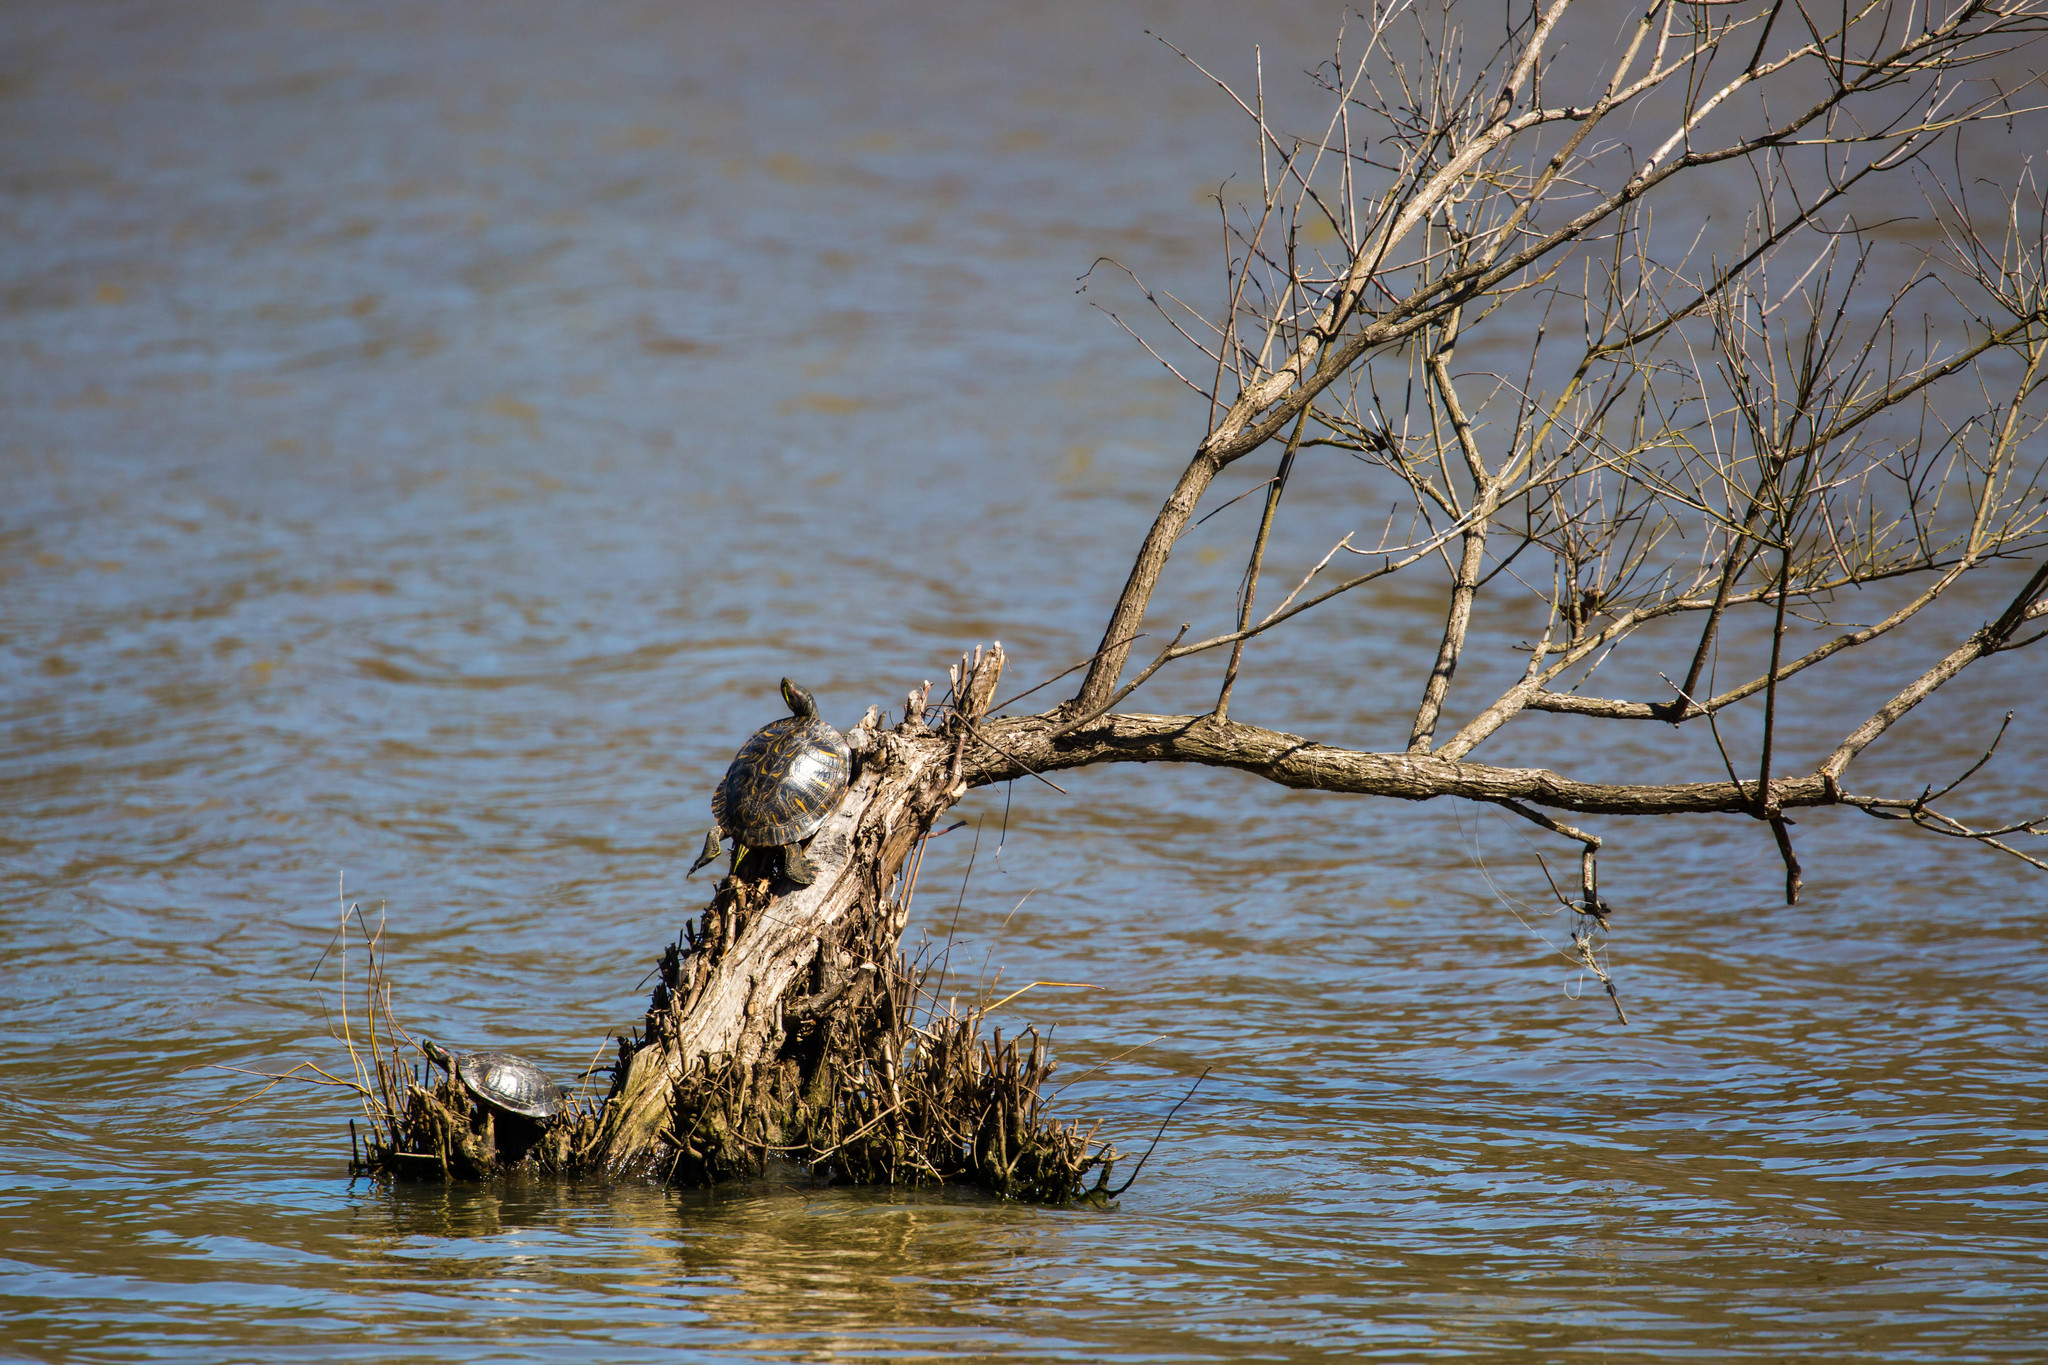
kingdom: Animalia
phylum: Chordata
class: Testudines
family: Emydidae
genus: Trachemys
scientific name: Trachemys scripta
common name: Slider
